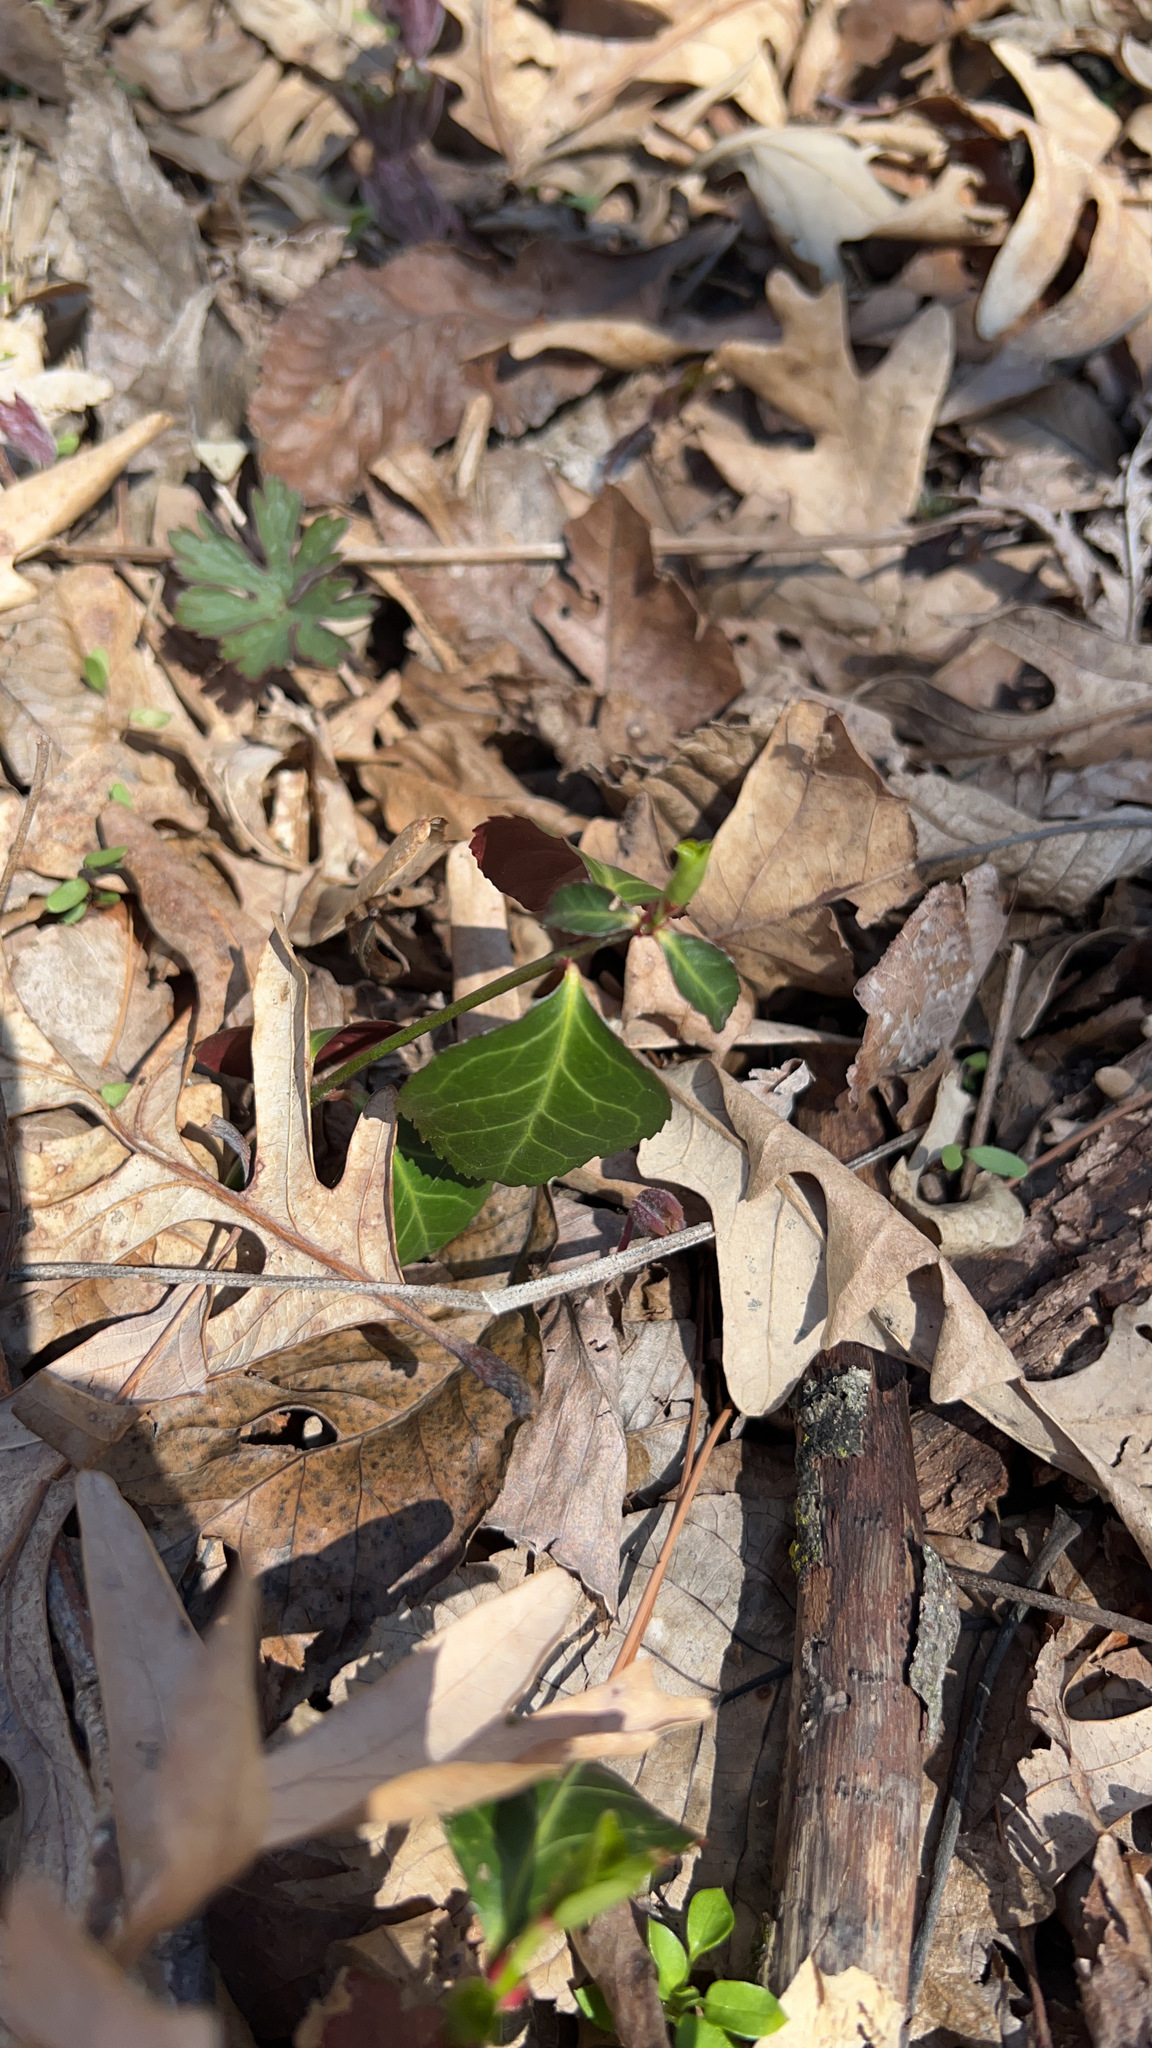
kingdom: Plantae
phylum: Tracheophyta
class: Magnoliopsida
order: Celastrales
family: Celastraceae
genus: Euonymus
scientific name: Euonymus fortunei
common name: Climbing euonymus
